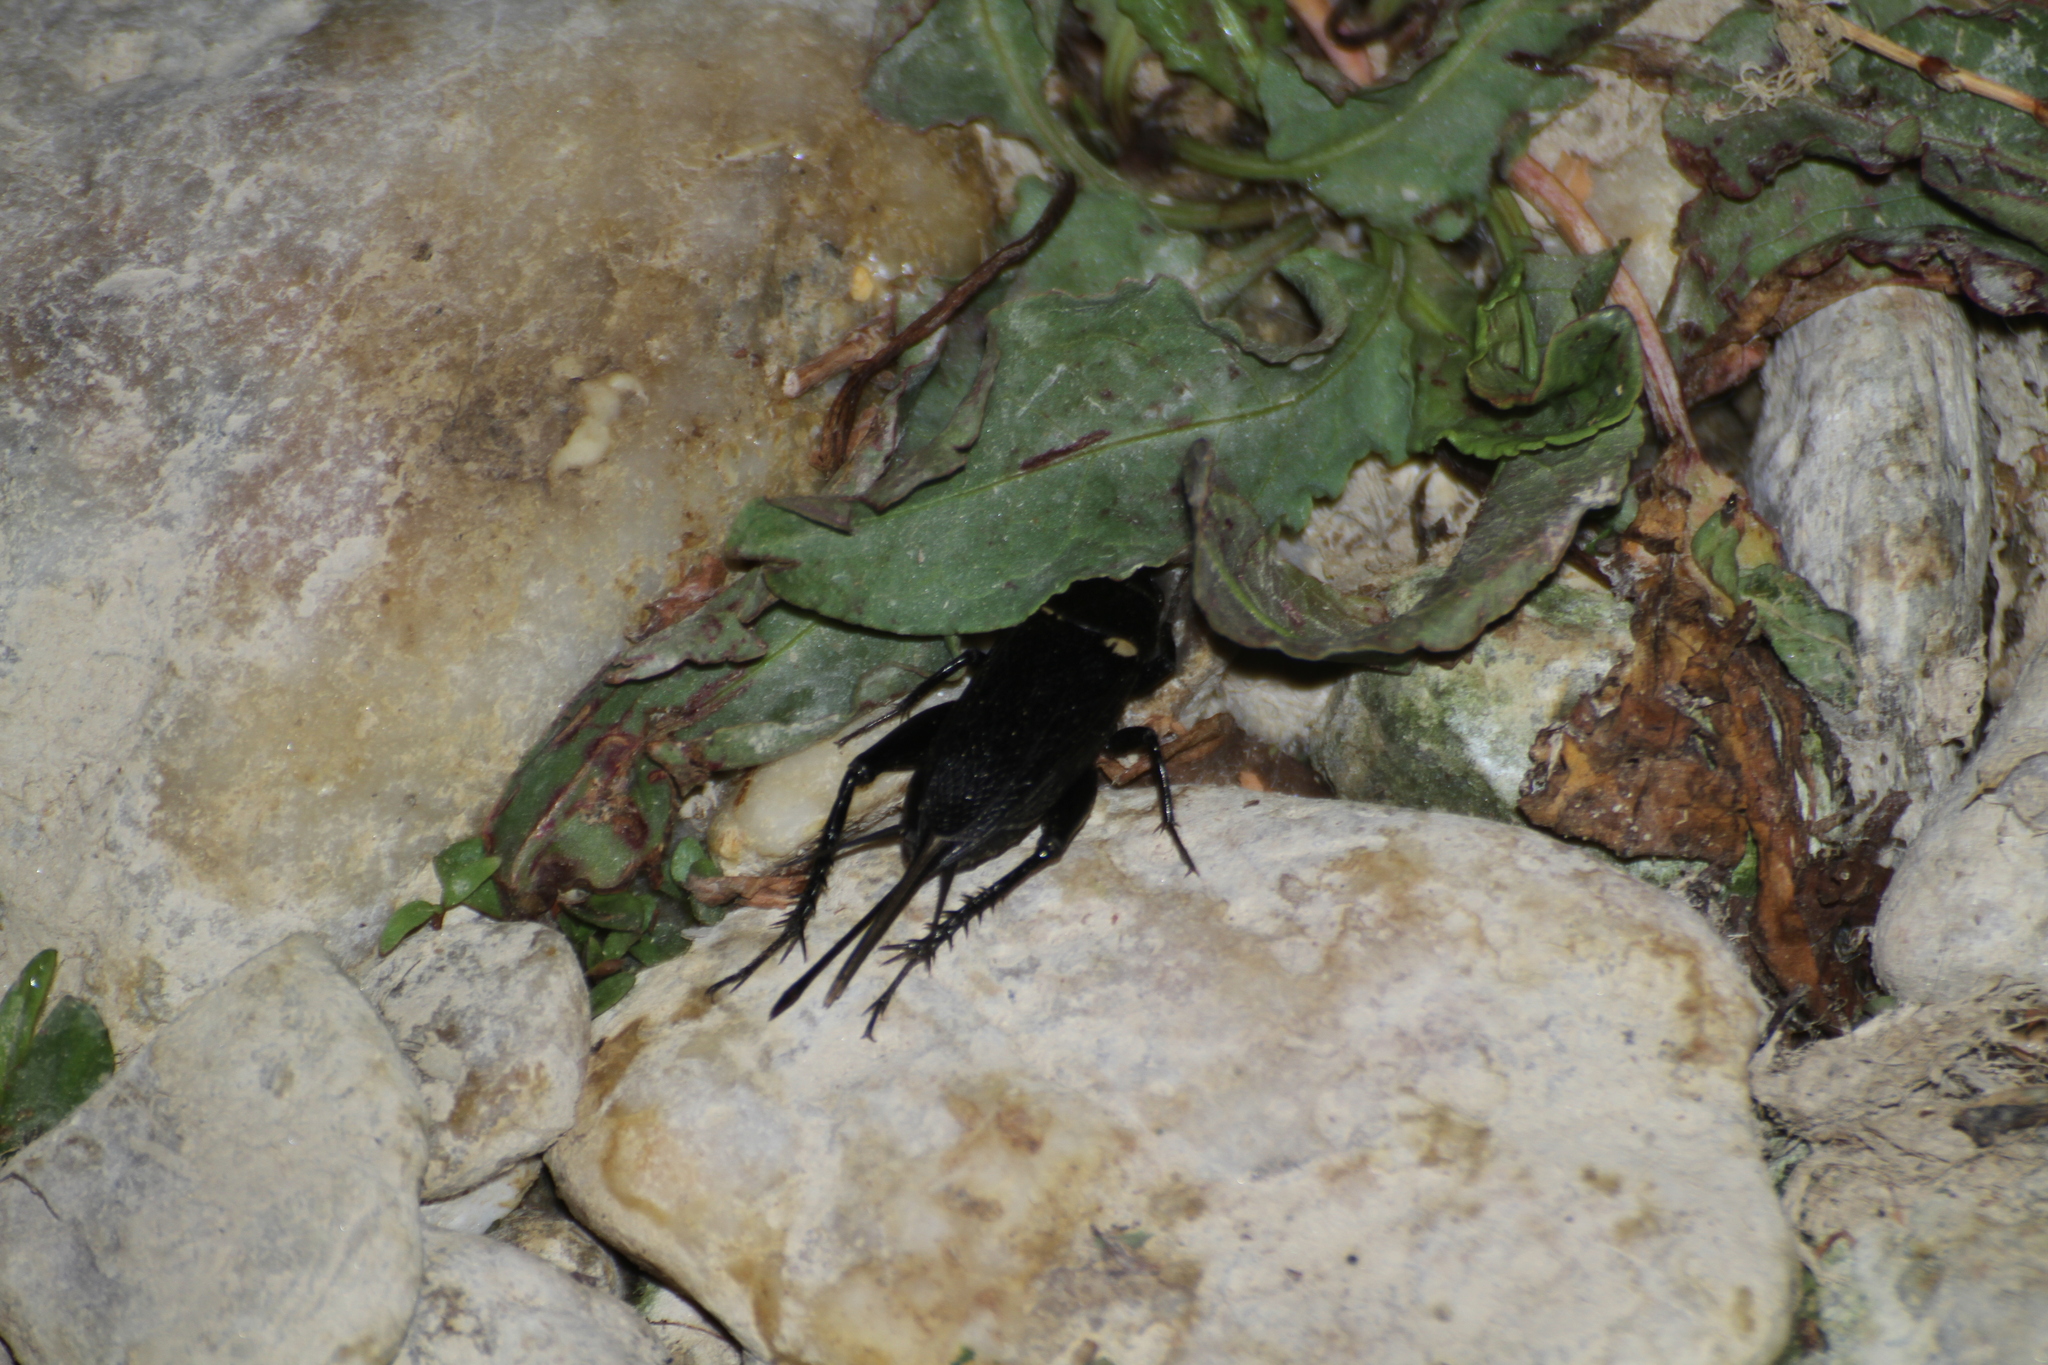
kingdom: Animalia
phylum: Arthropoda
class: Insecta
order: Orthoptera
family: Gryllidae
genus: Gryllus
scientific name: Gryllus bimaculatus
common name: Two-spotted cricket
